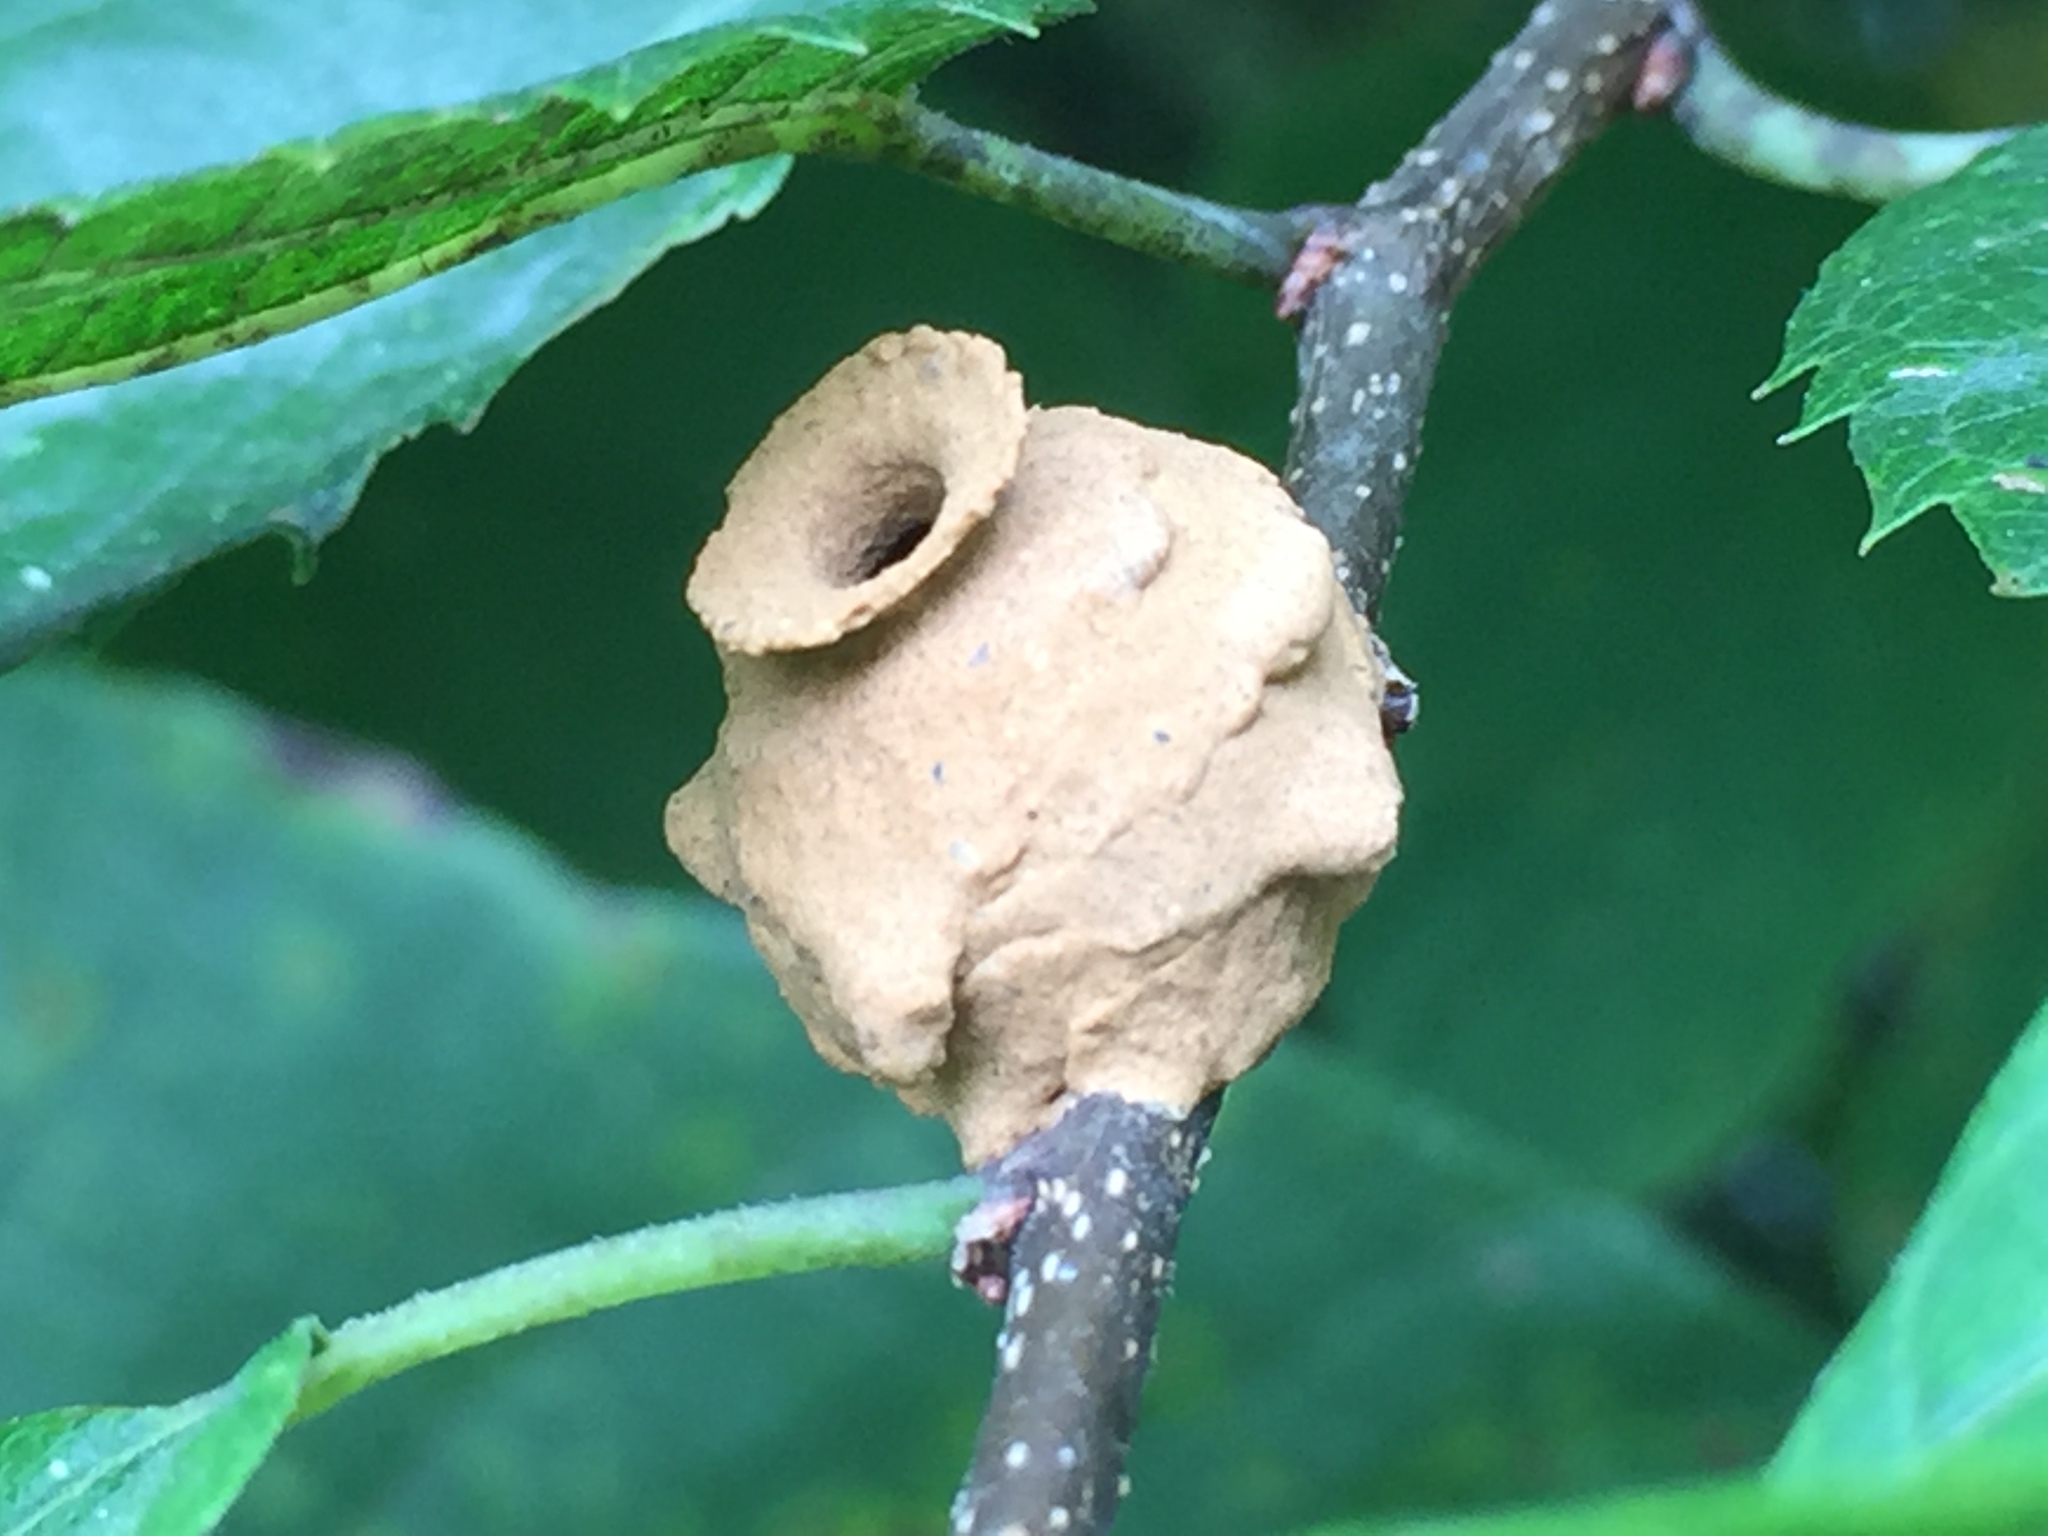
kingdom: Animalia
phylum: Arthropoda
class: Insecta
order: Hymenoptera
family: Vespidae
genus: Eumenes
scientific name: Eumenes
